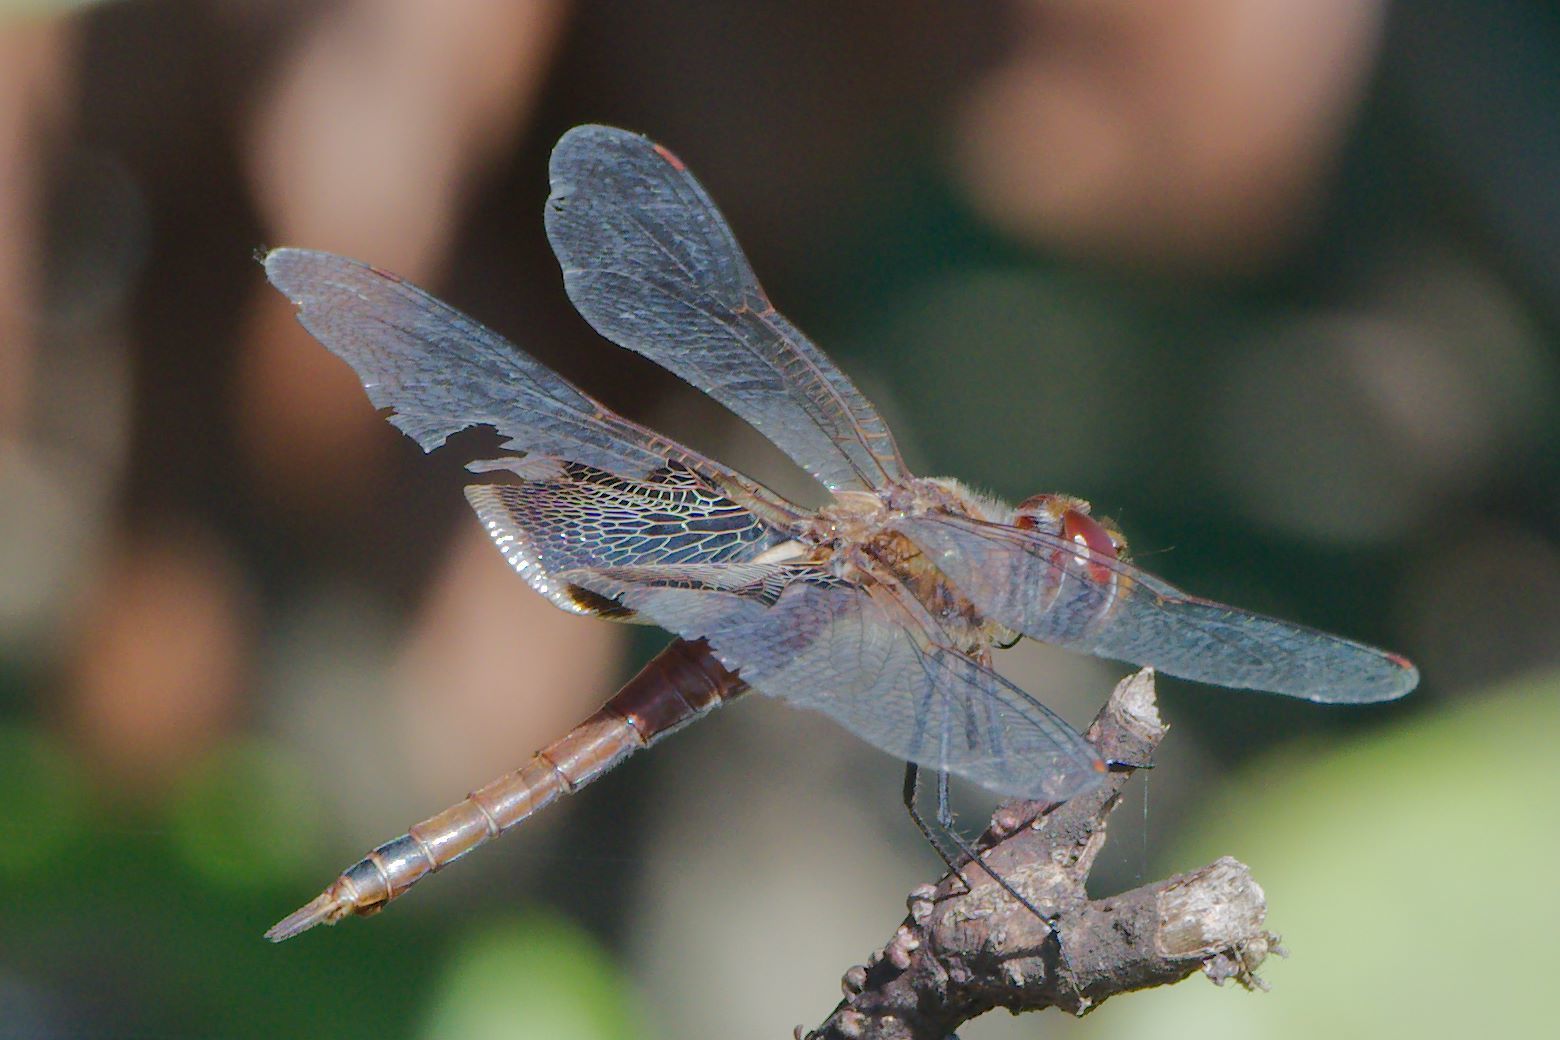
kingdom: Animalia
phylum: Arthropoda
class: Insecta
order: Odonata
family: Libellulidae
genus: Tramea
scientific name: Tramea carolina
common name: Carolina saddlebags
